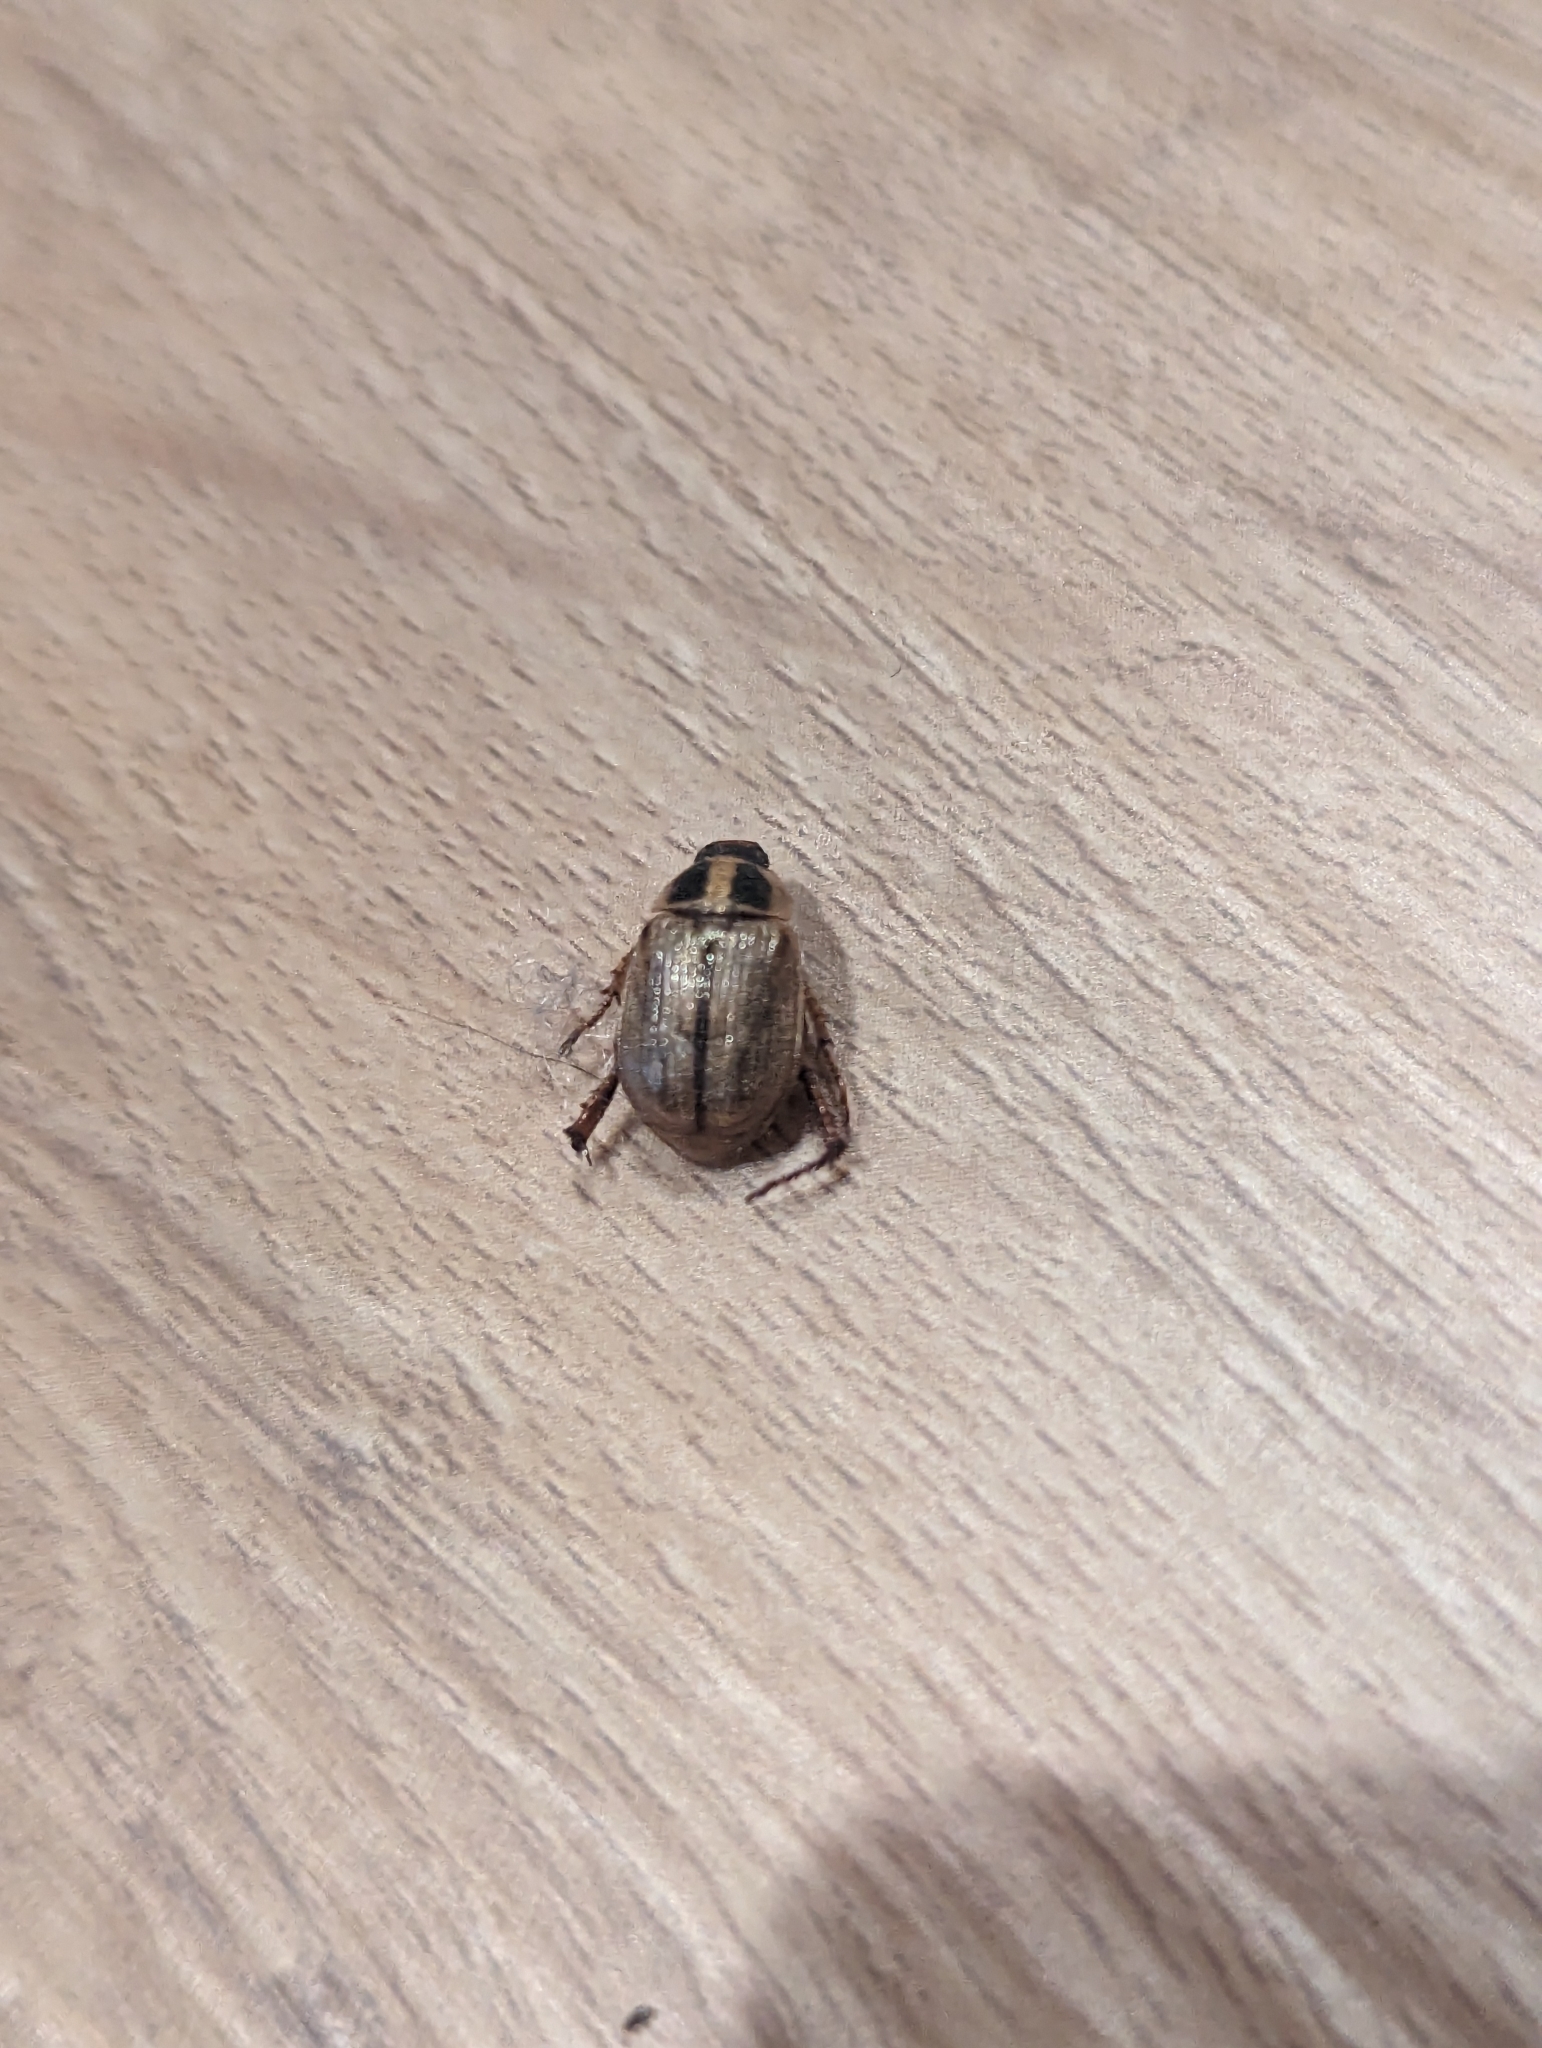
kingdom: Animalia
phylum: Arthropoda
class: Insecta
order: Coleoptera
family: Scarabaeidae
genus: Exomala
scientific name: Exomala orientalis
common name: Oriental beetle
